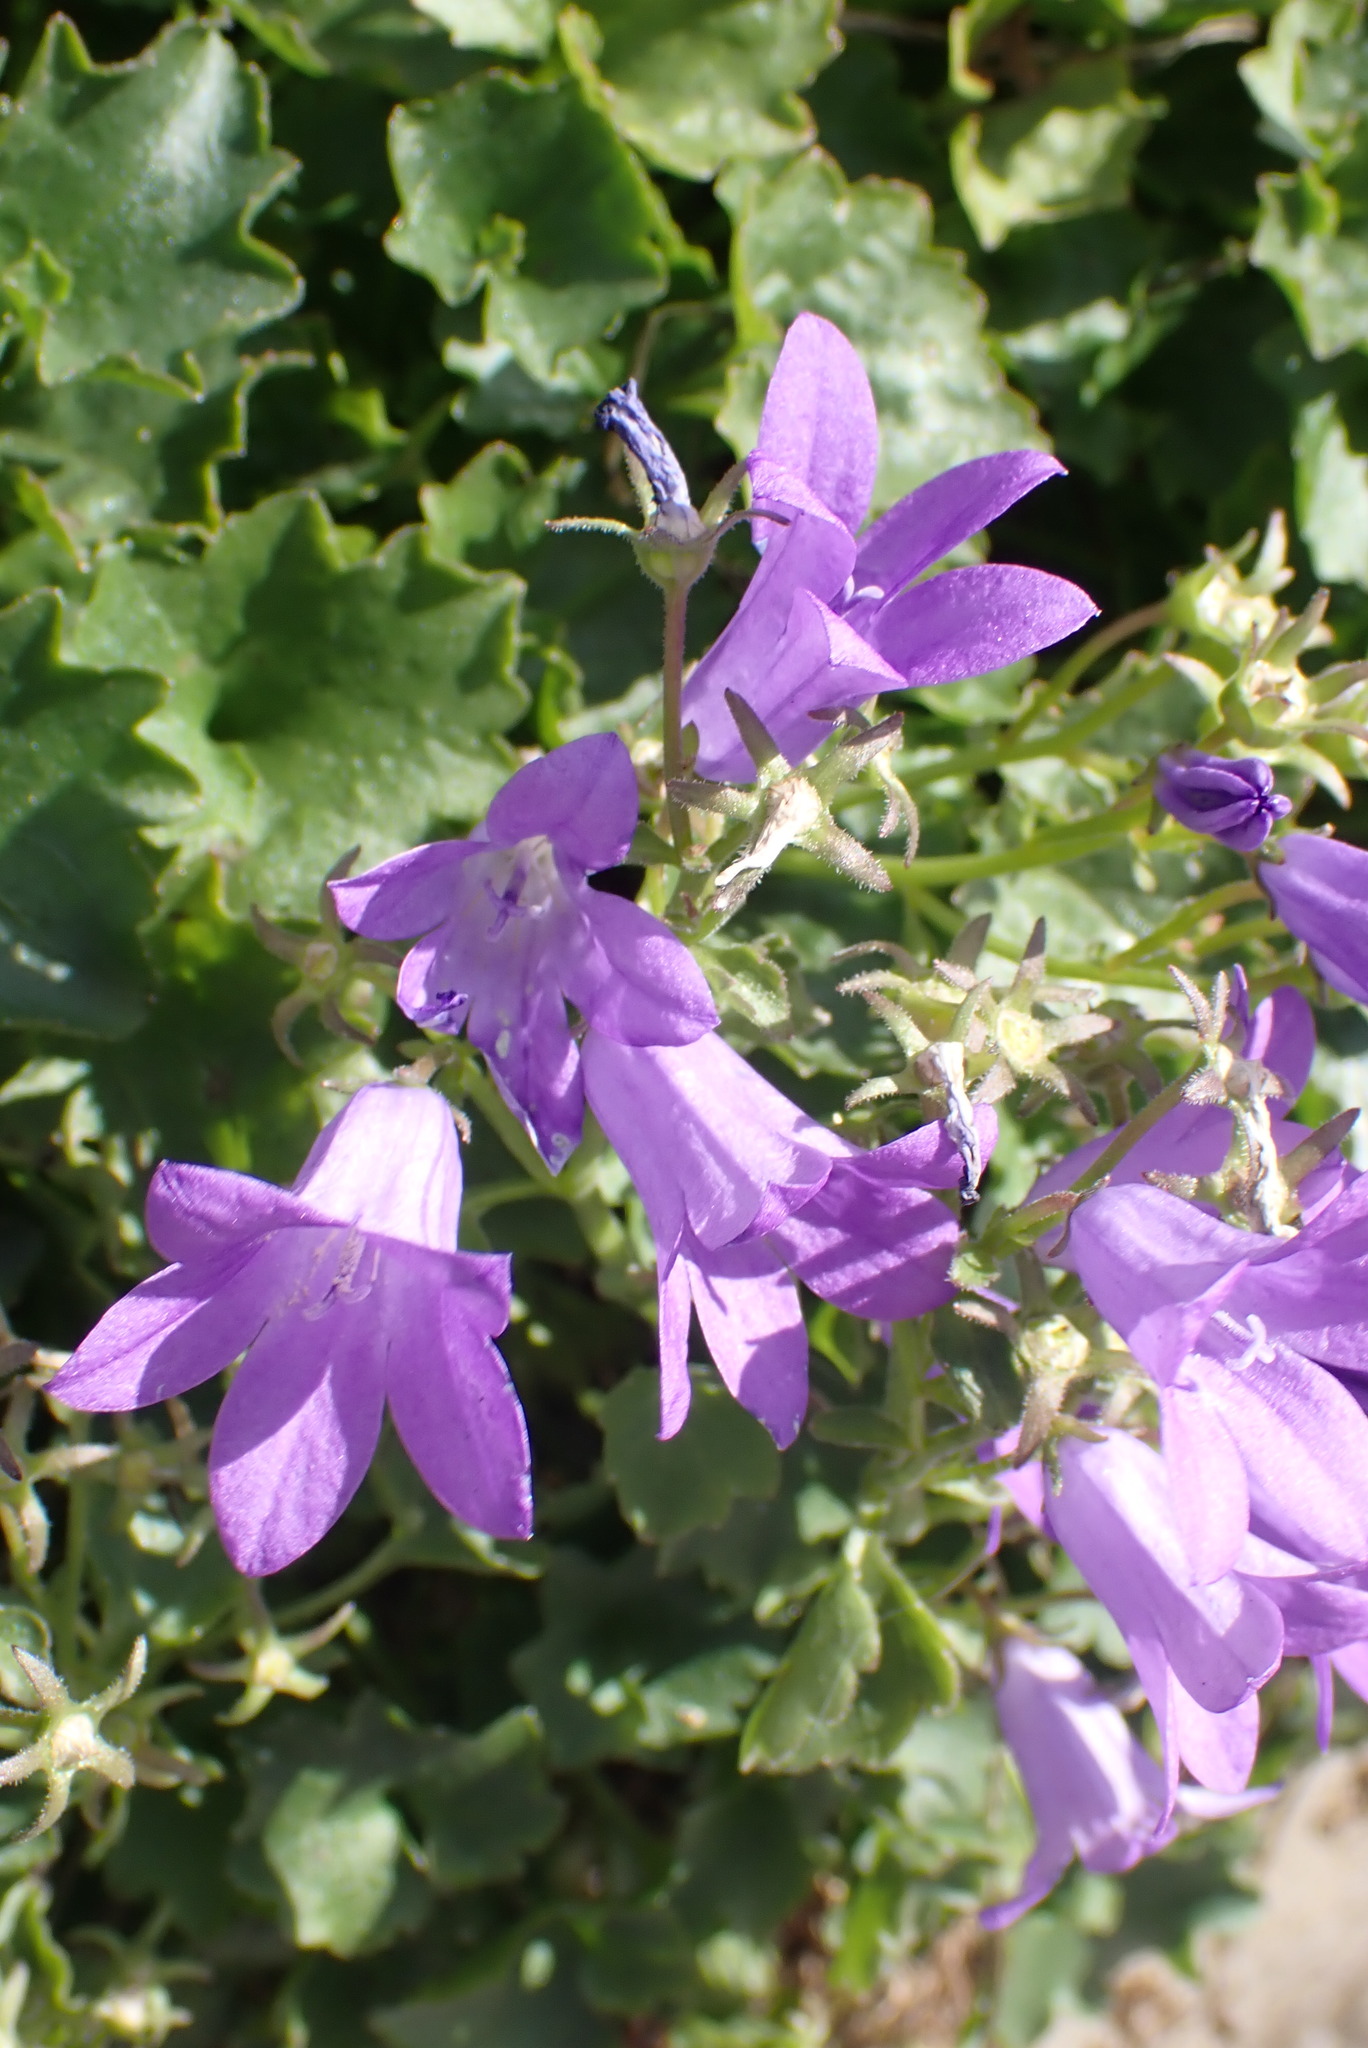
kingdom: Plantae
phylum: Tracheophyta
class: Magnoliopsida
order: Asterales
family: Campanulaceae
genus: Campanula
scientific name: Campanula portenschlagiana
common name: Adria bellflower
